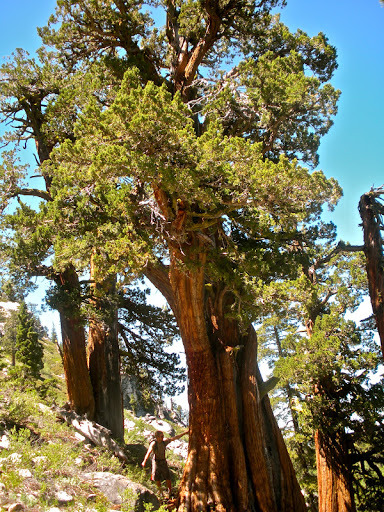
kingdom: Plantae
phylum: Tracheophyta
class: Pinopsida
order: Pinales
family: Cupressaceae
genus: Calocedrus
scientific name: Calocedrus decurrens
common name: Californian incense-cedar
